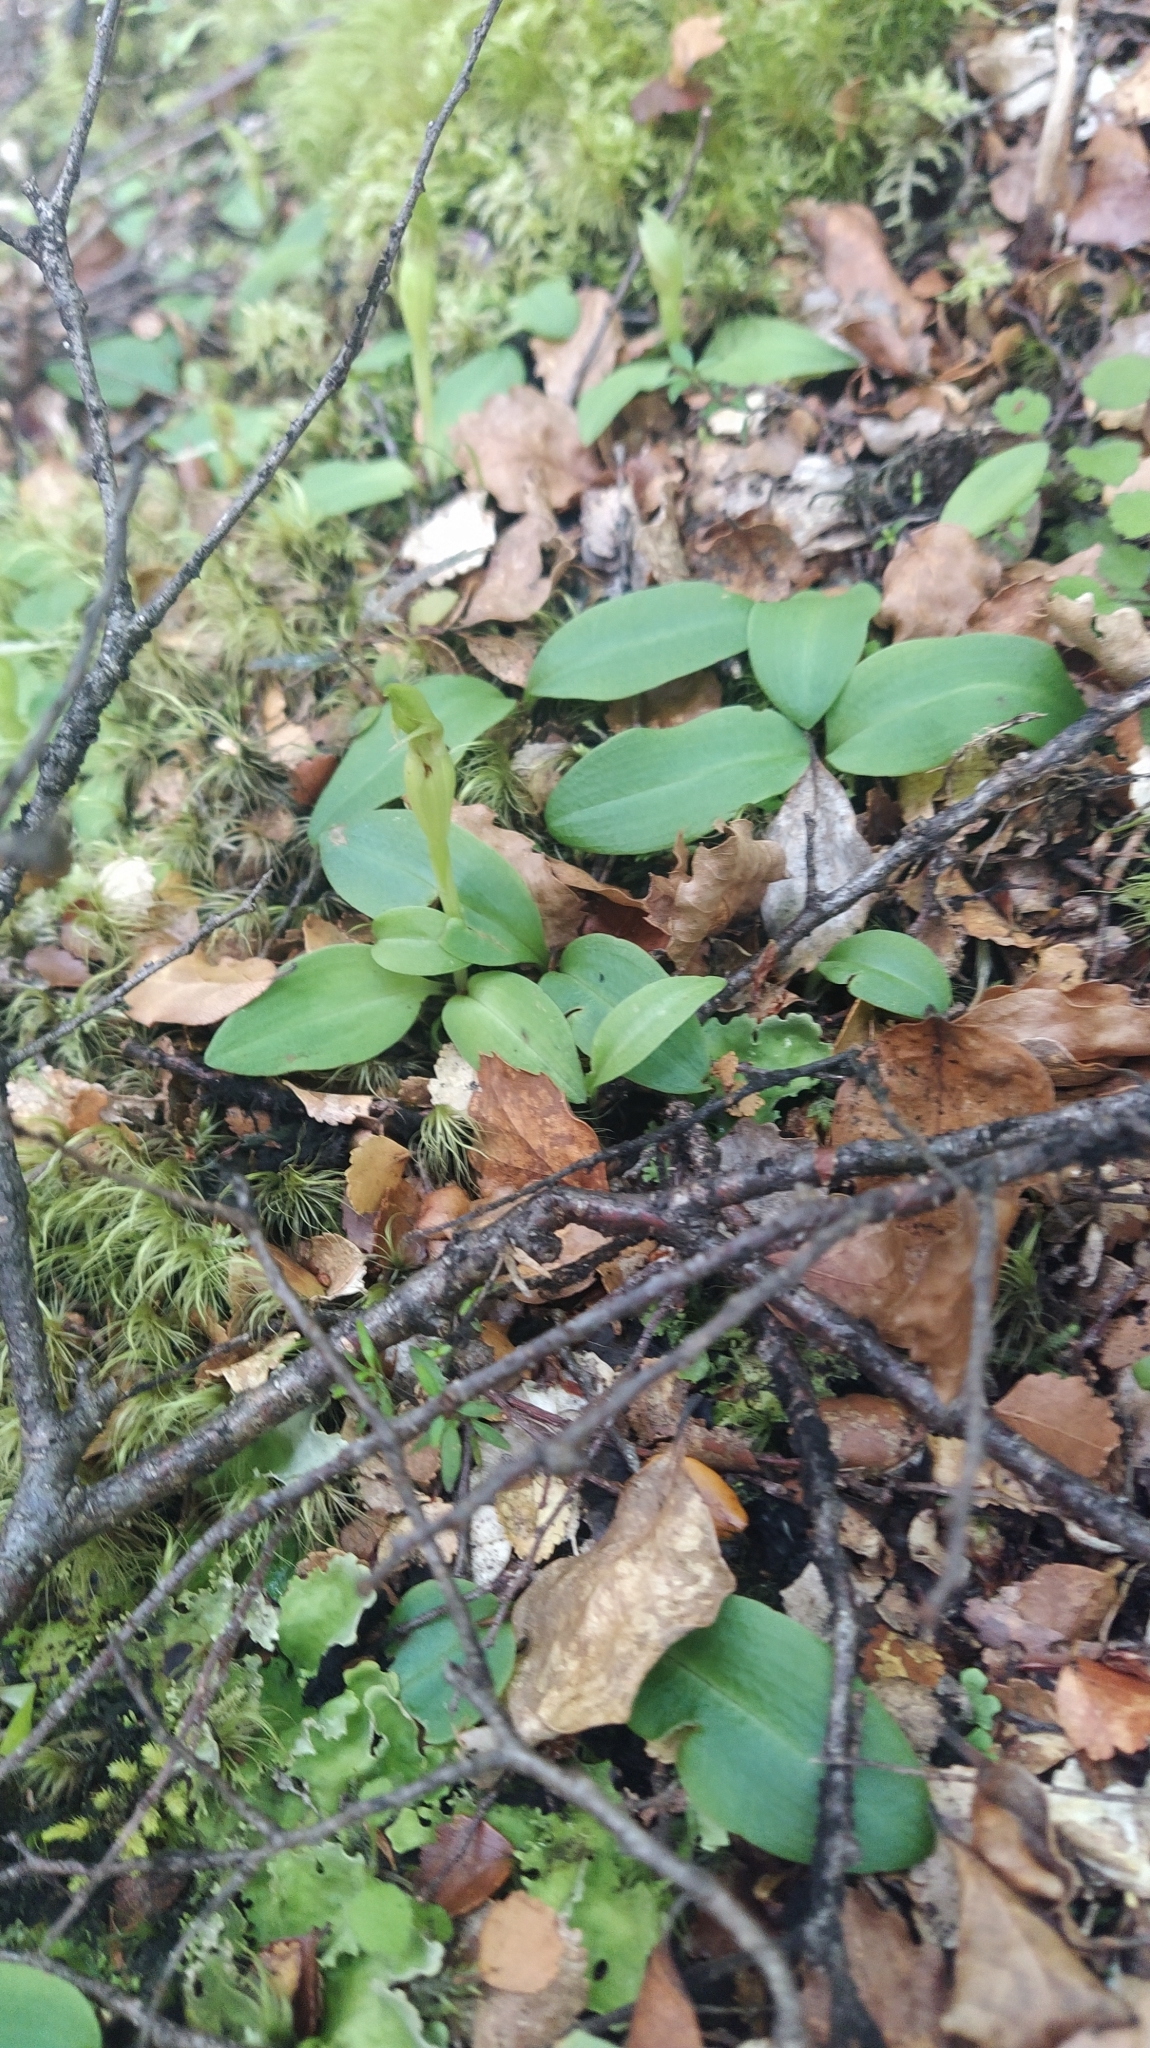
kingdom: Plantae
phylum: Tracheophyta
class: Liliopsida
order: Asparagales
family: Orchidaceae
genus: Chiloglottis
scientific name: Chiloglottis cornuta
